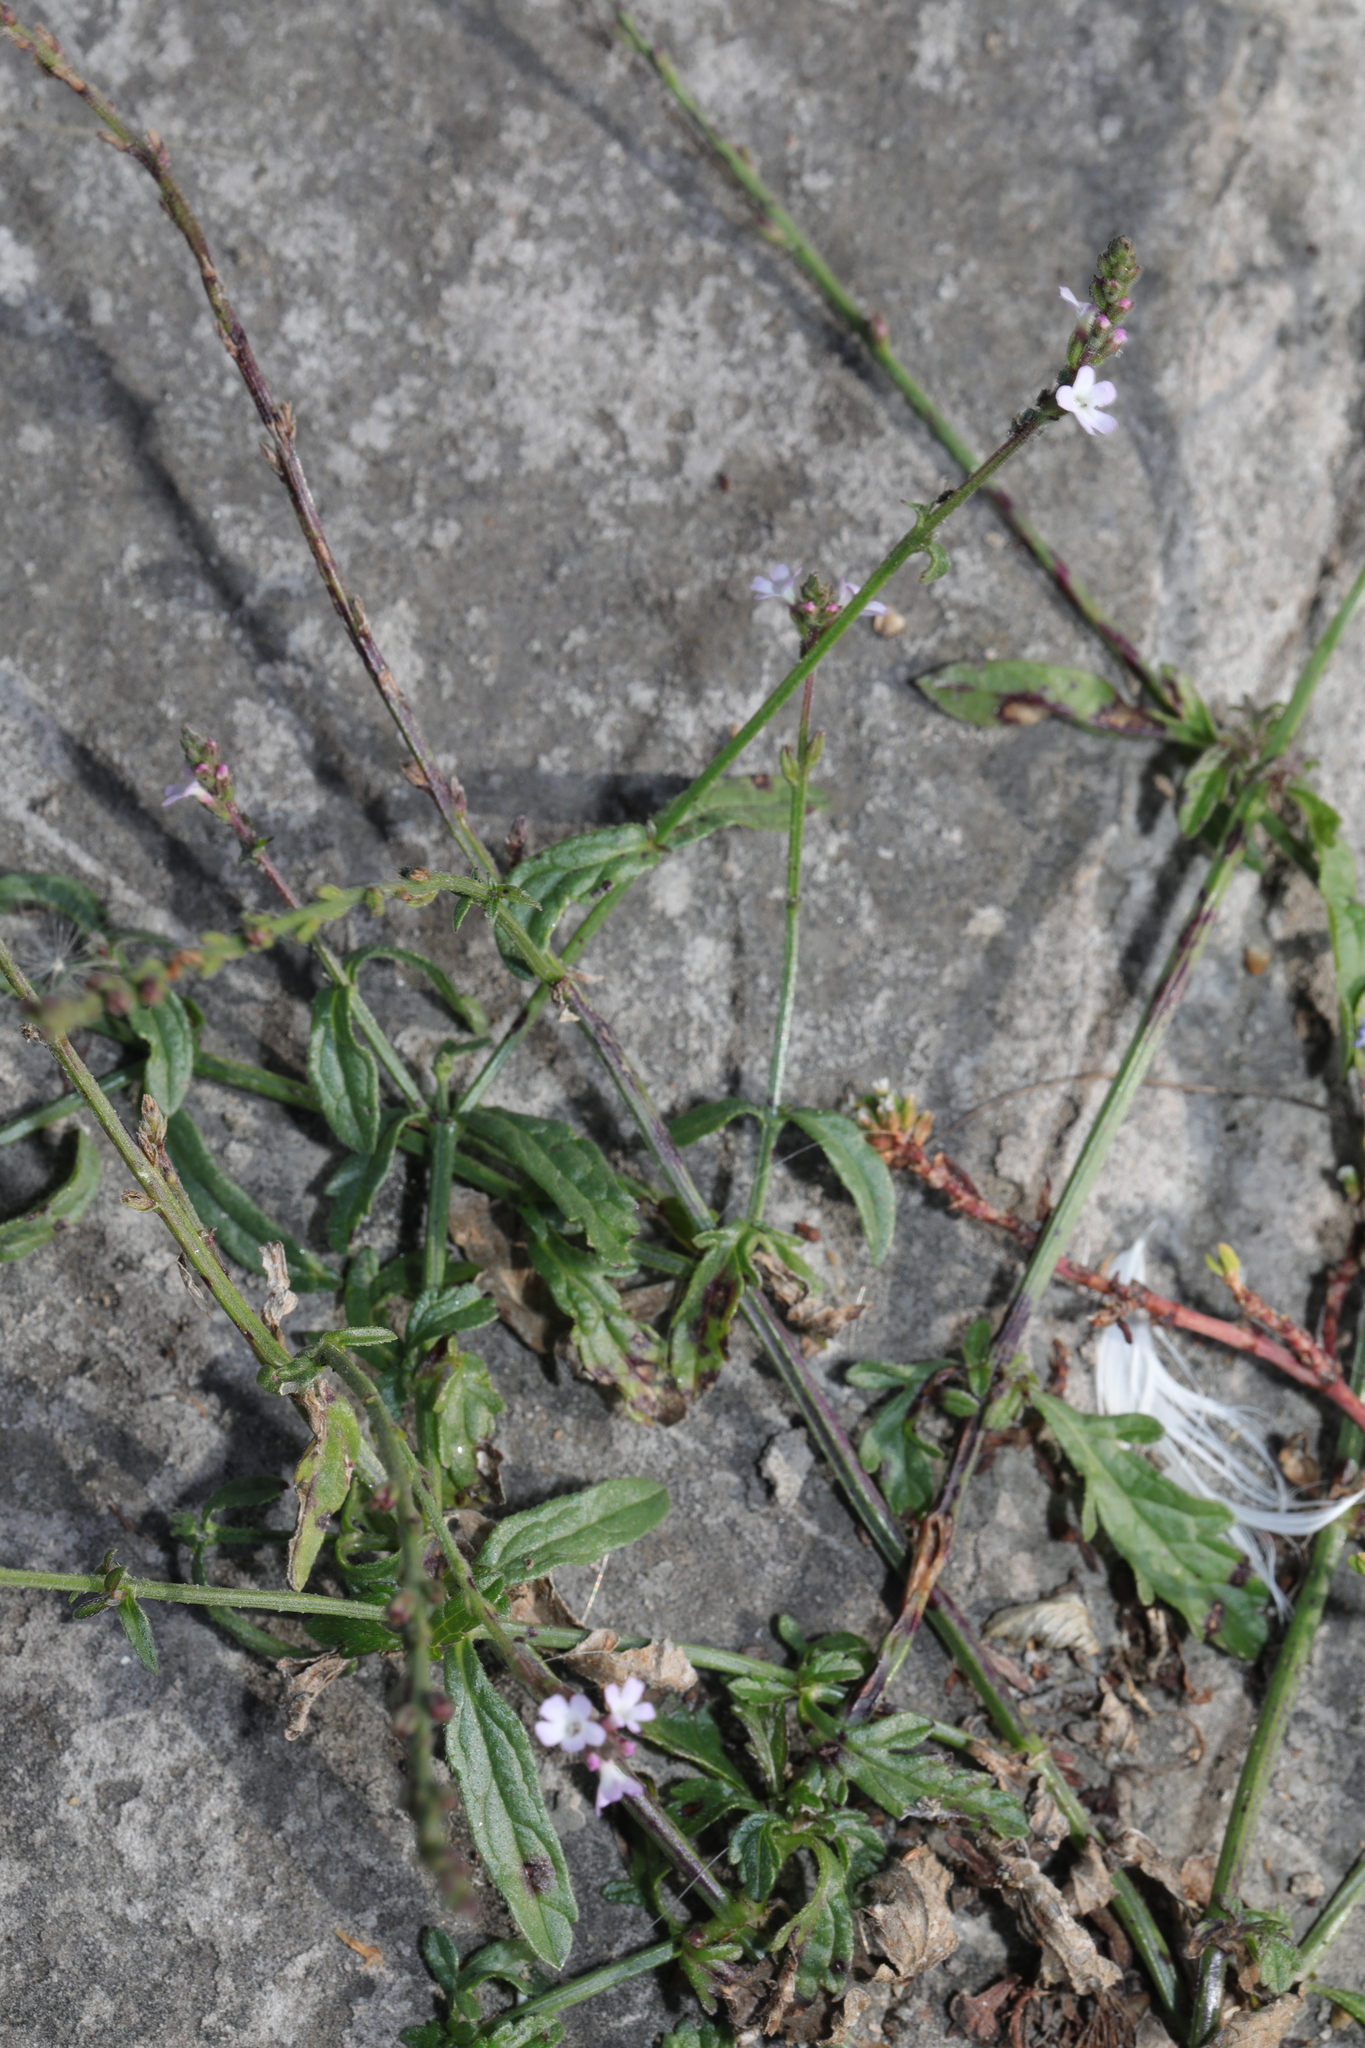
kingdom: Plantae
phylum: Tracheophyta
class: Magnoliopsida
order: Lamiales
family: Verbenaceae
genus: Verbena
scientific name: Verbena officinalis
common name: Vervain
